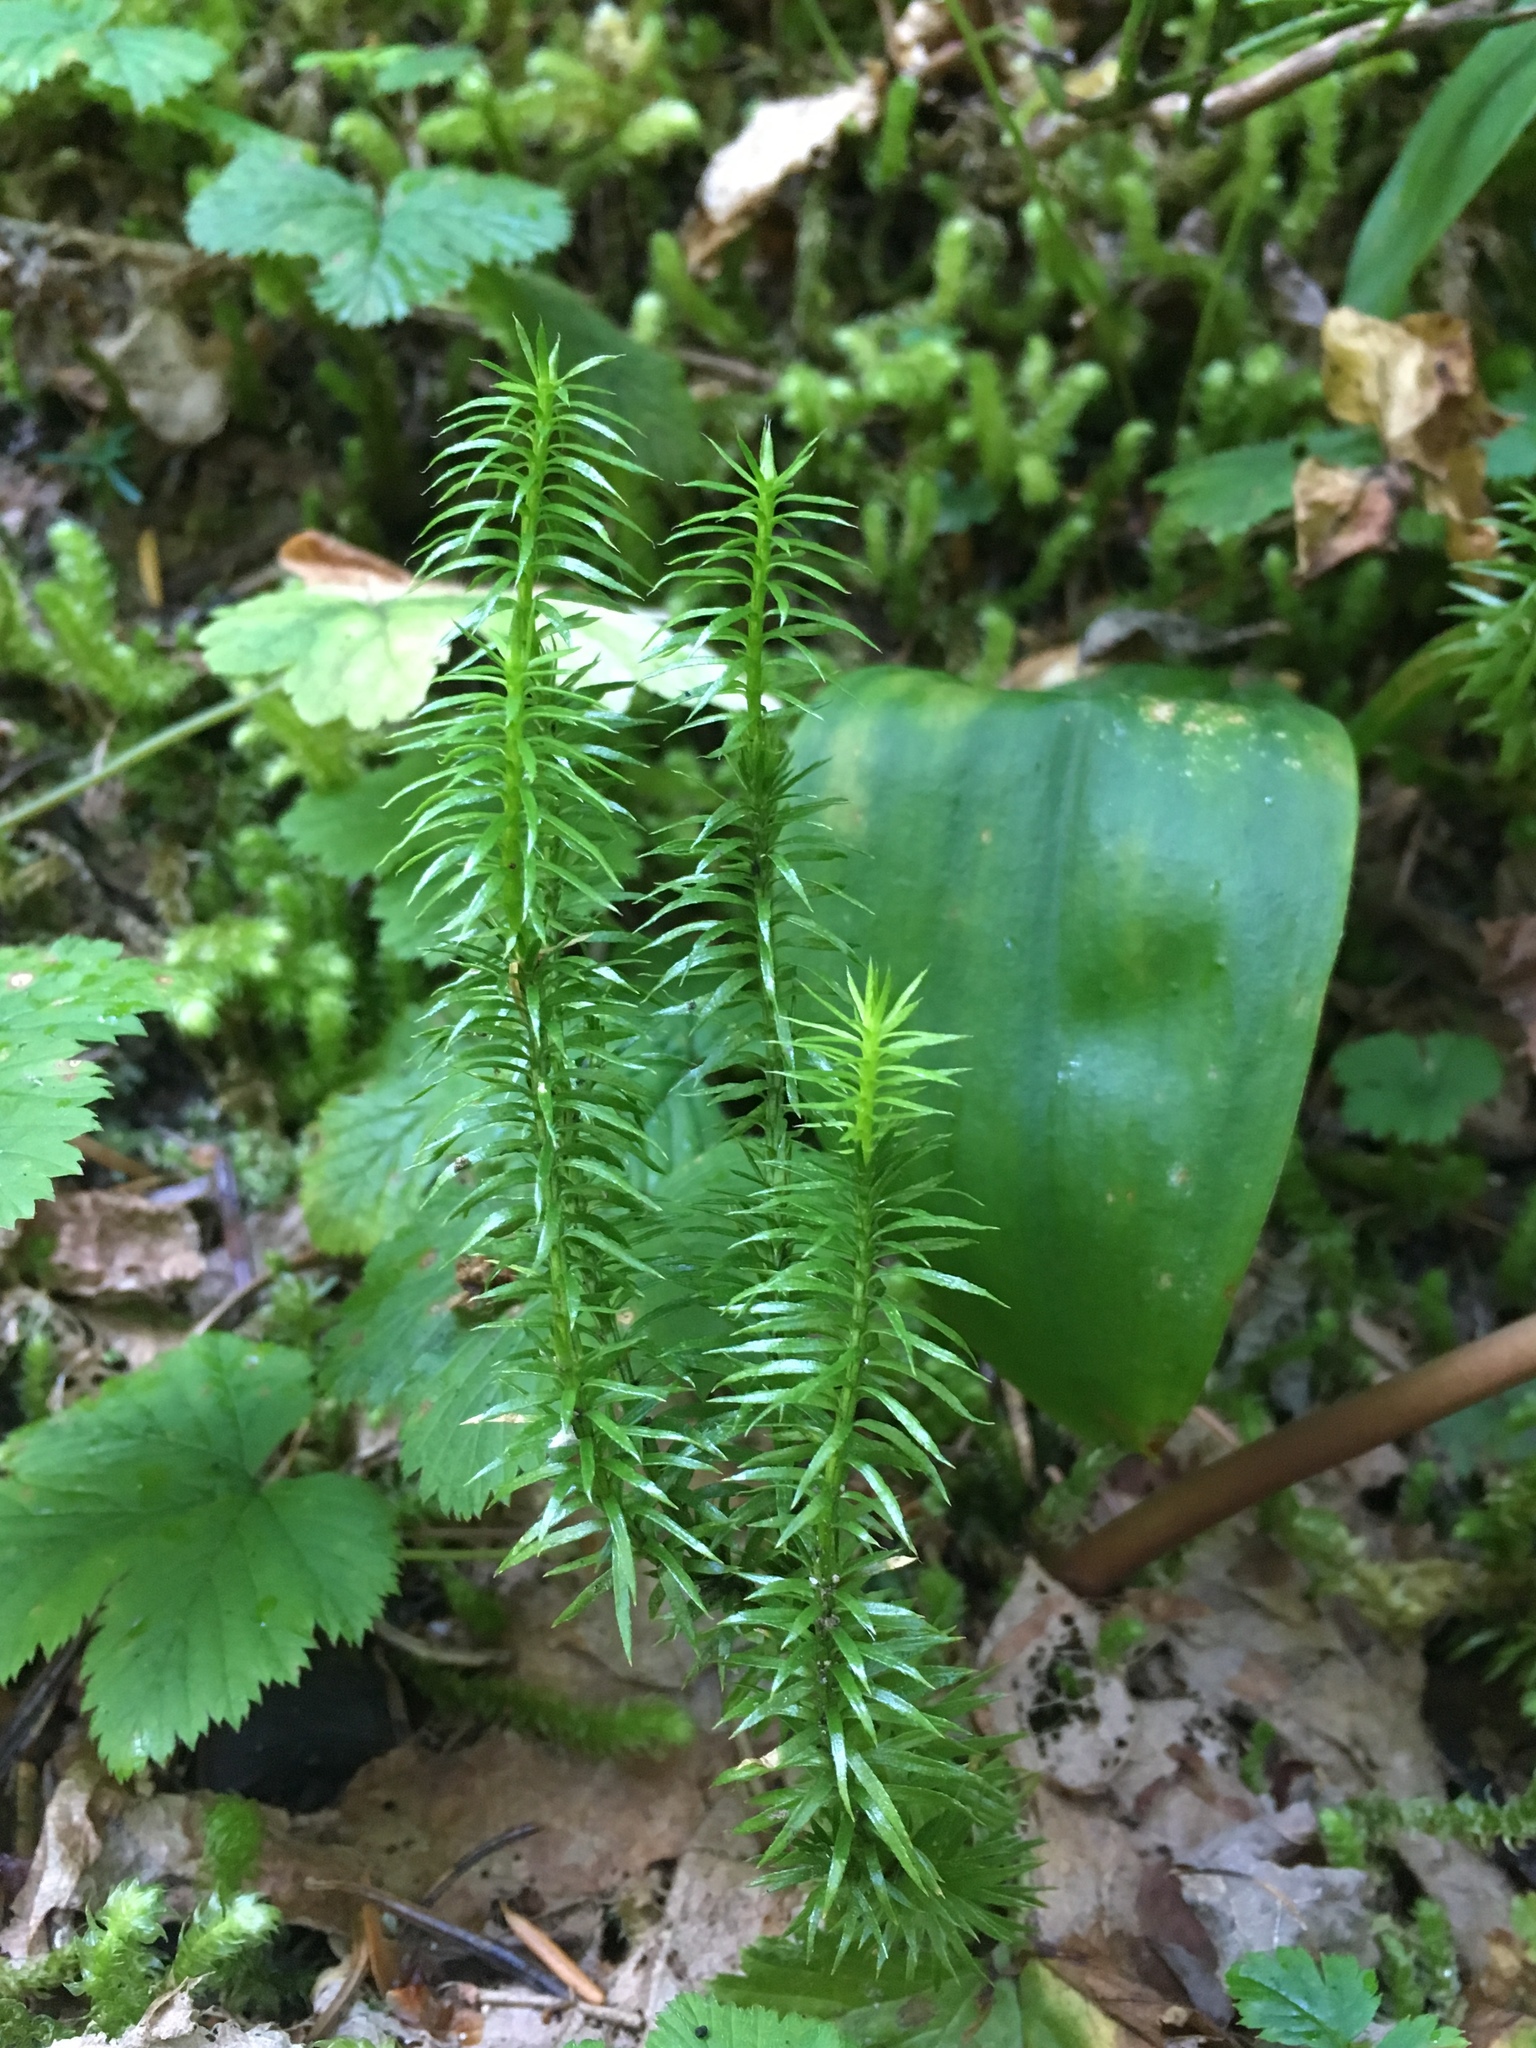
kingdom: Plantae
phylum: Tracheophyta
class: Lycopodiopsida
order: Lycopodiales
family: Lycopodiaceae
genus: Spinulum
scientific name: Spinulum annotinum
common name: Interrupted club-moss
